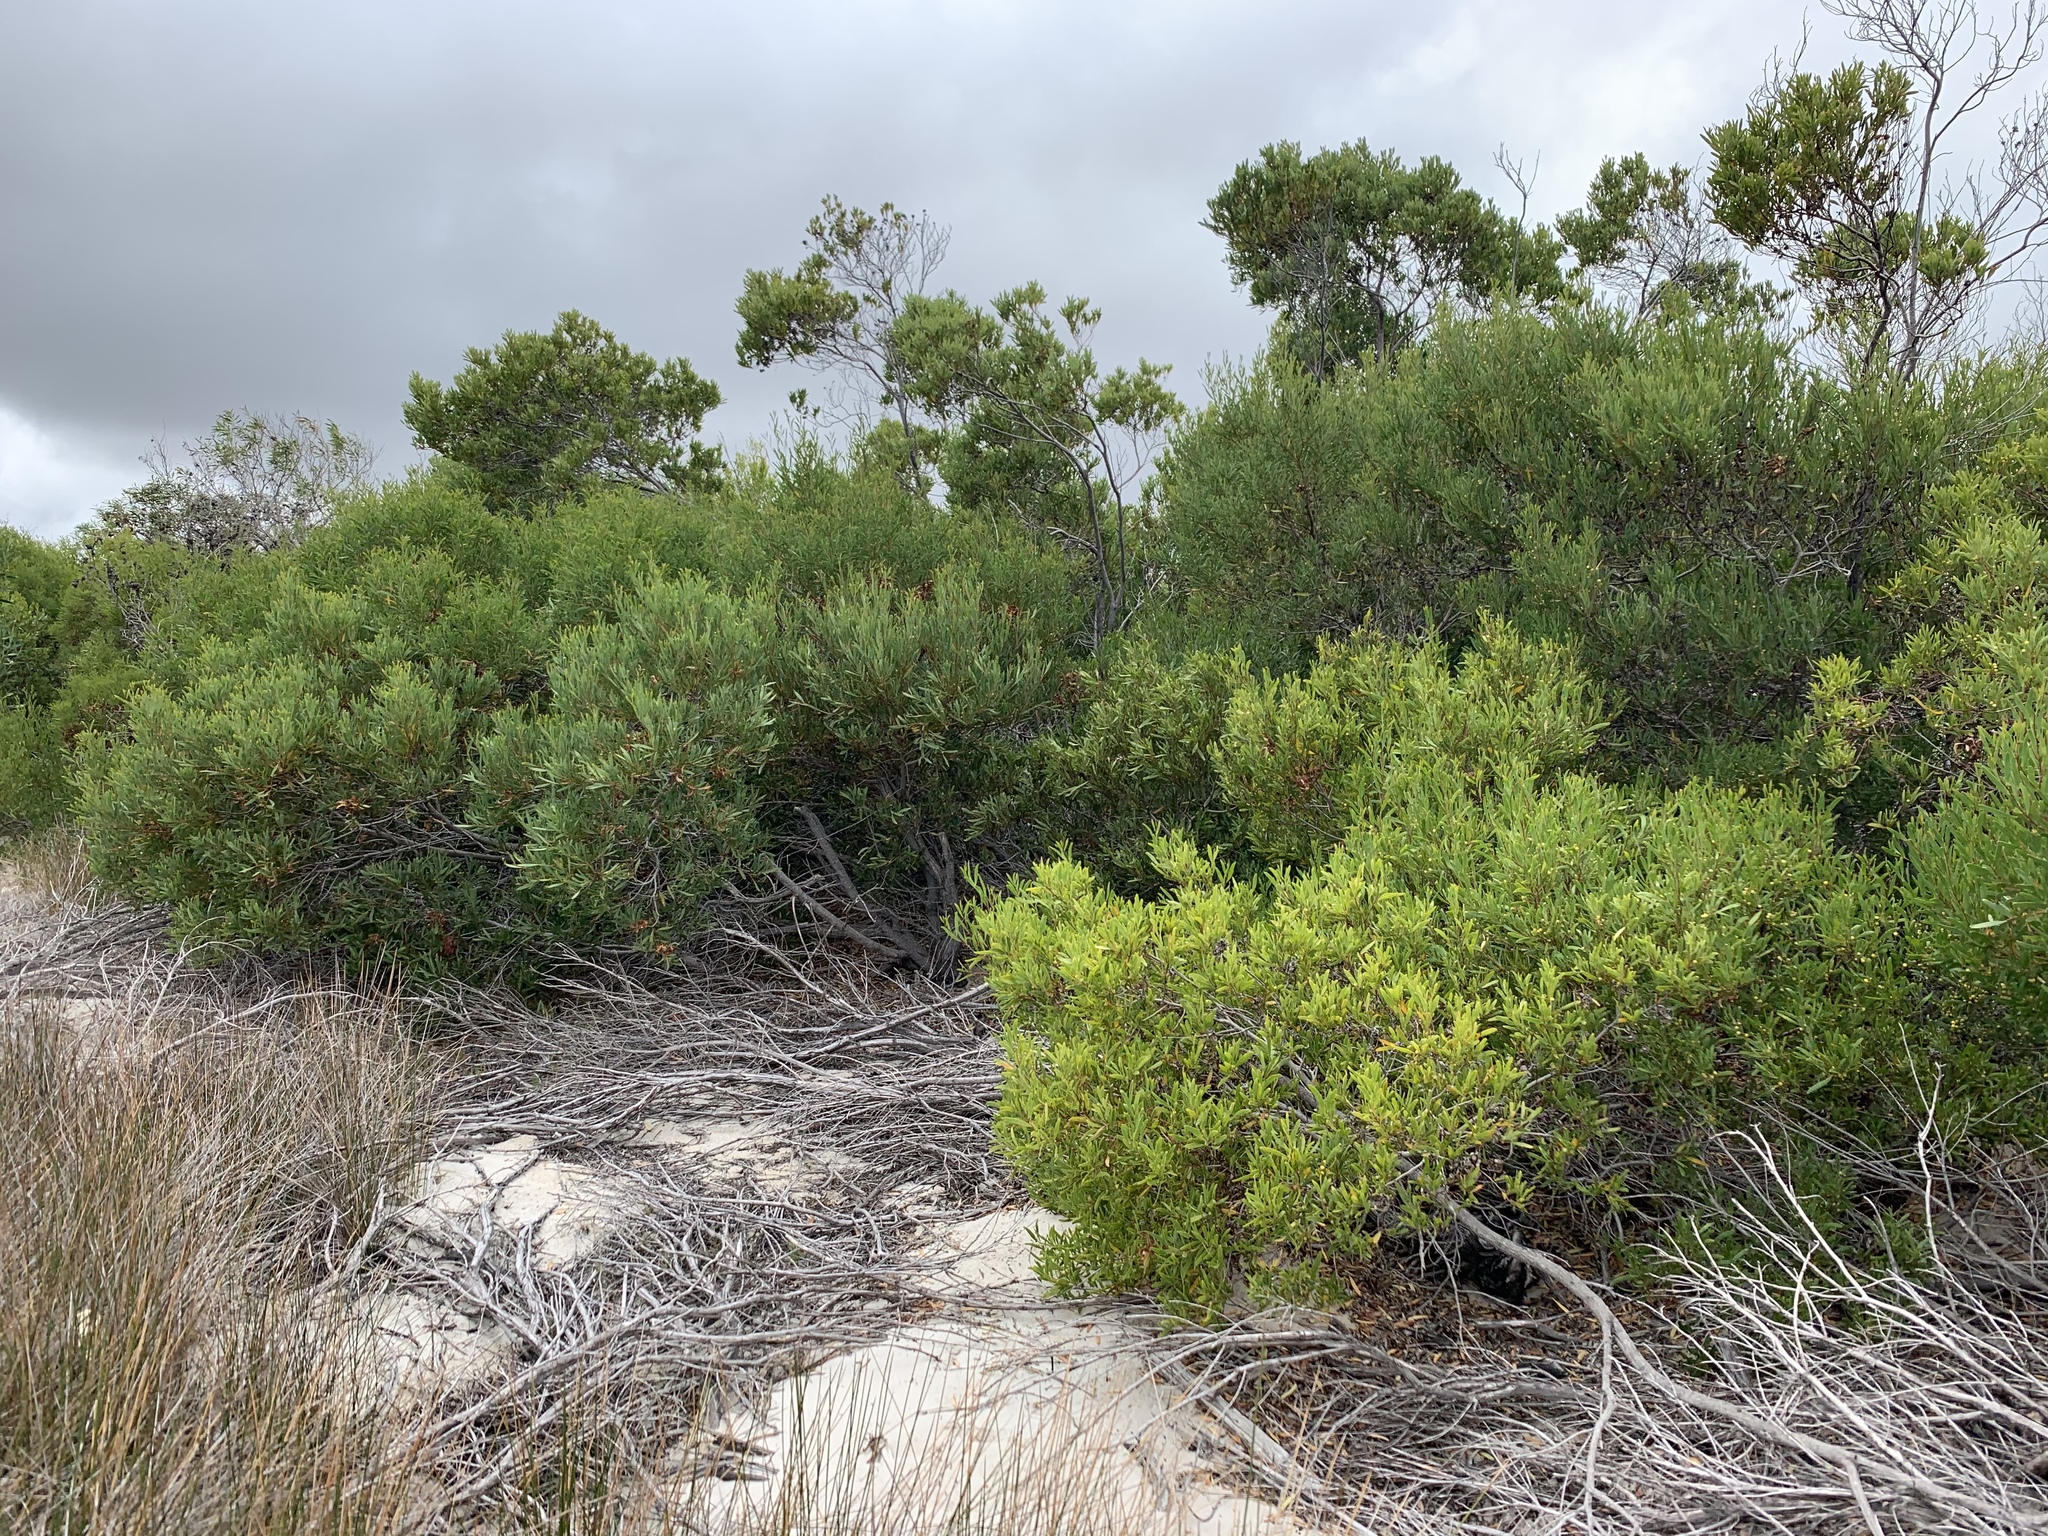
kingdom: Plantae
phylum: Tracheophyta
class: Magnoliopsida
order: Fabales
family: Fabaceae
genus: Acacia
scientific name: Acacia cyclops
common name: Coastal wattle
